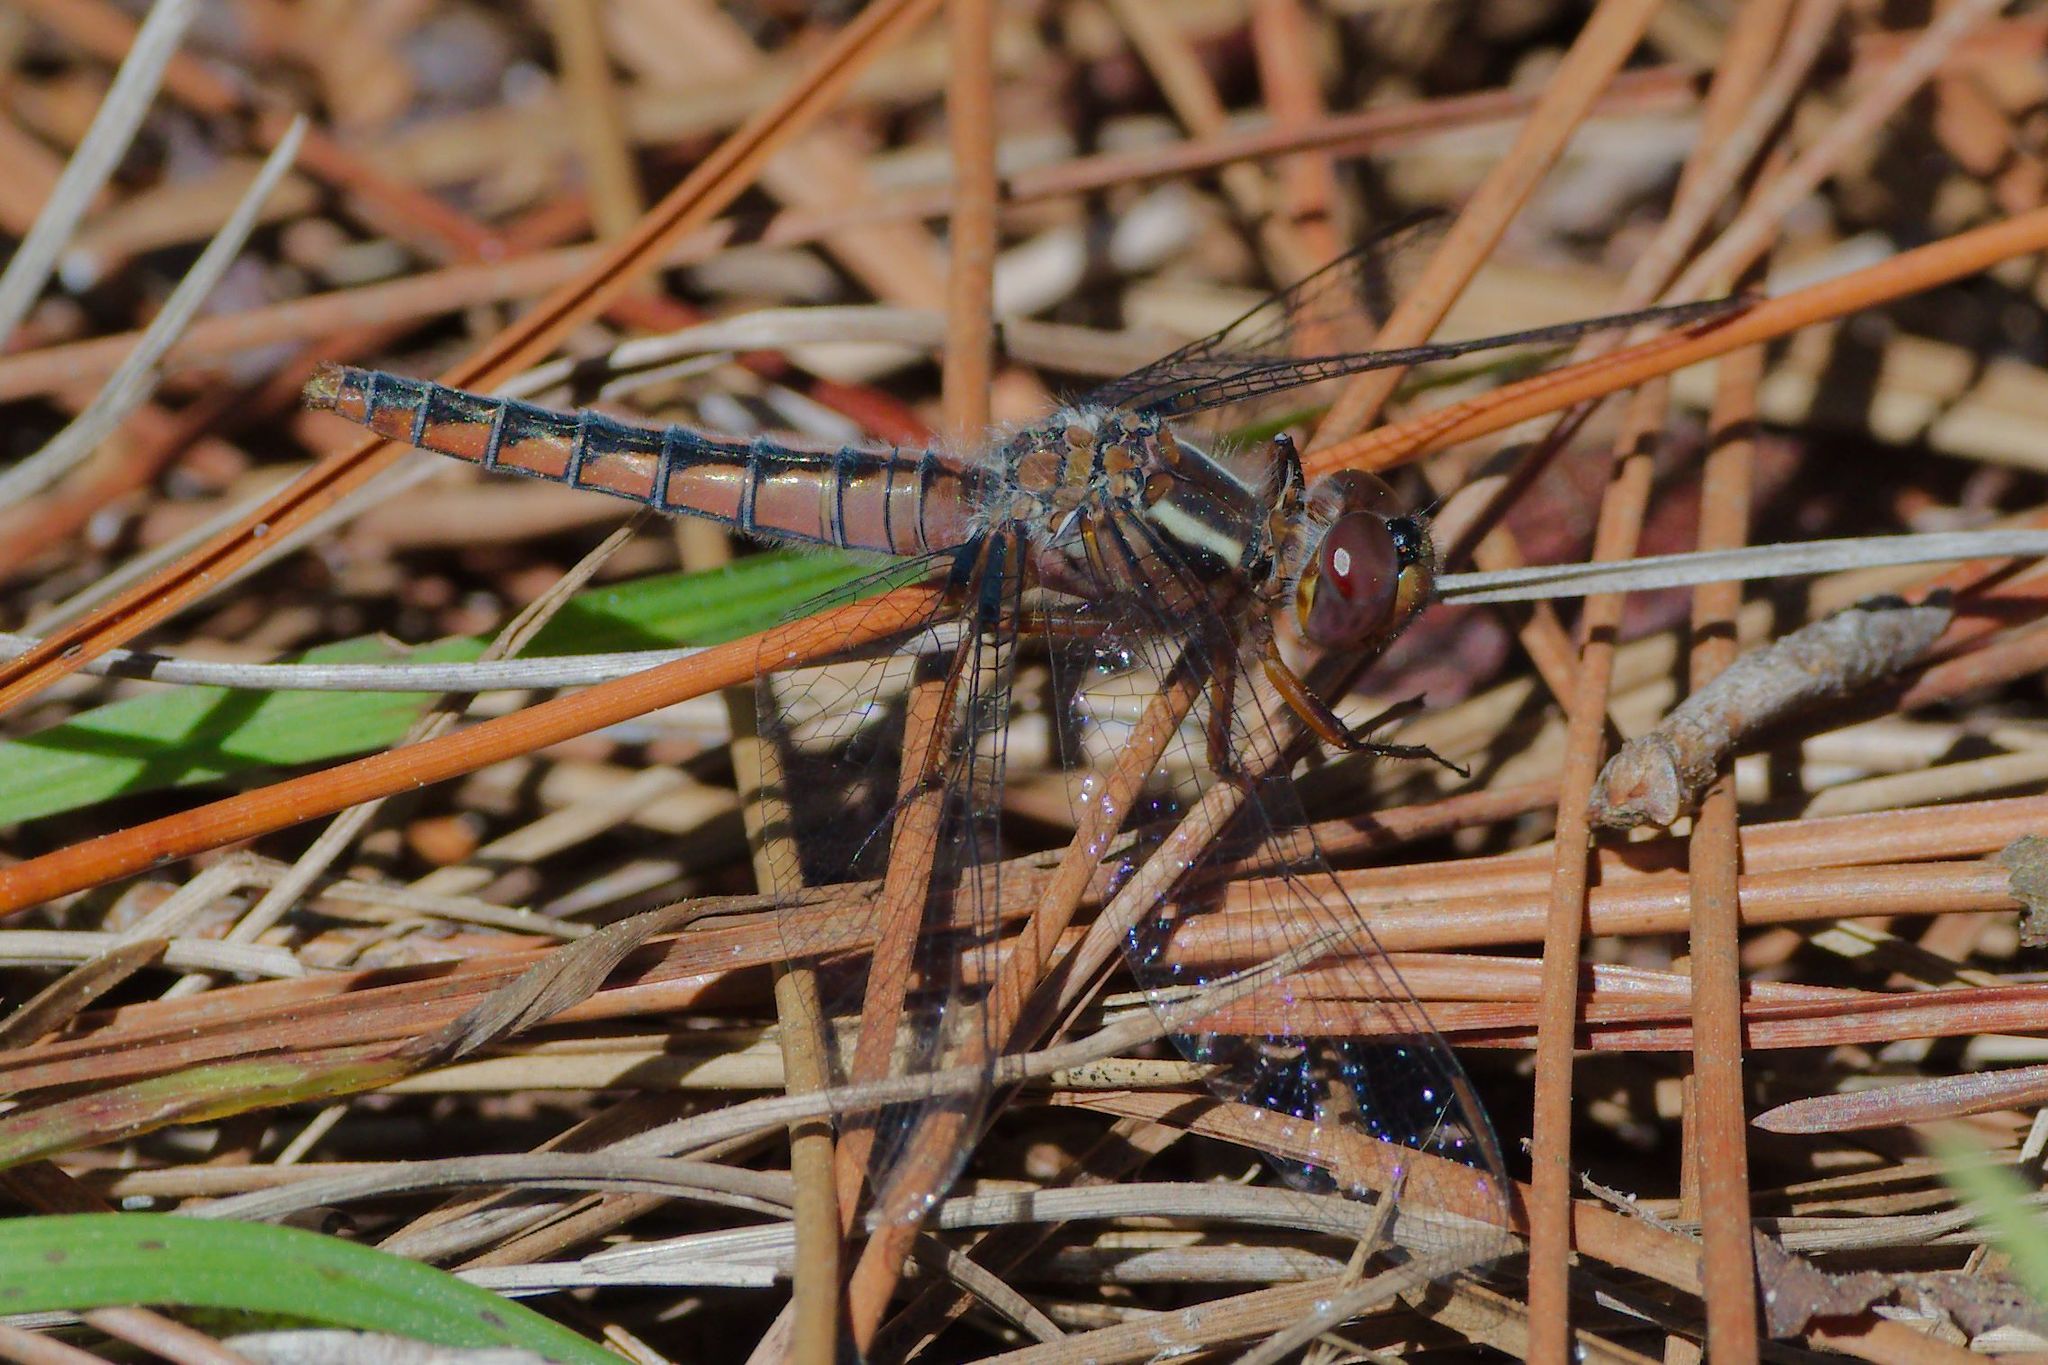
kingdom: Animalia
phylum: Arthropoda
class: Insecta
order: Odonata
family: Libellulidae
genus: Ladona
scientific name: Ladona deplanata
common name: Blue corporal
